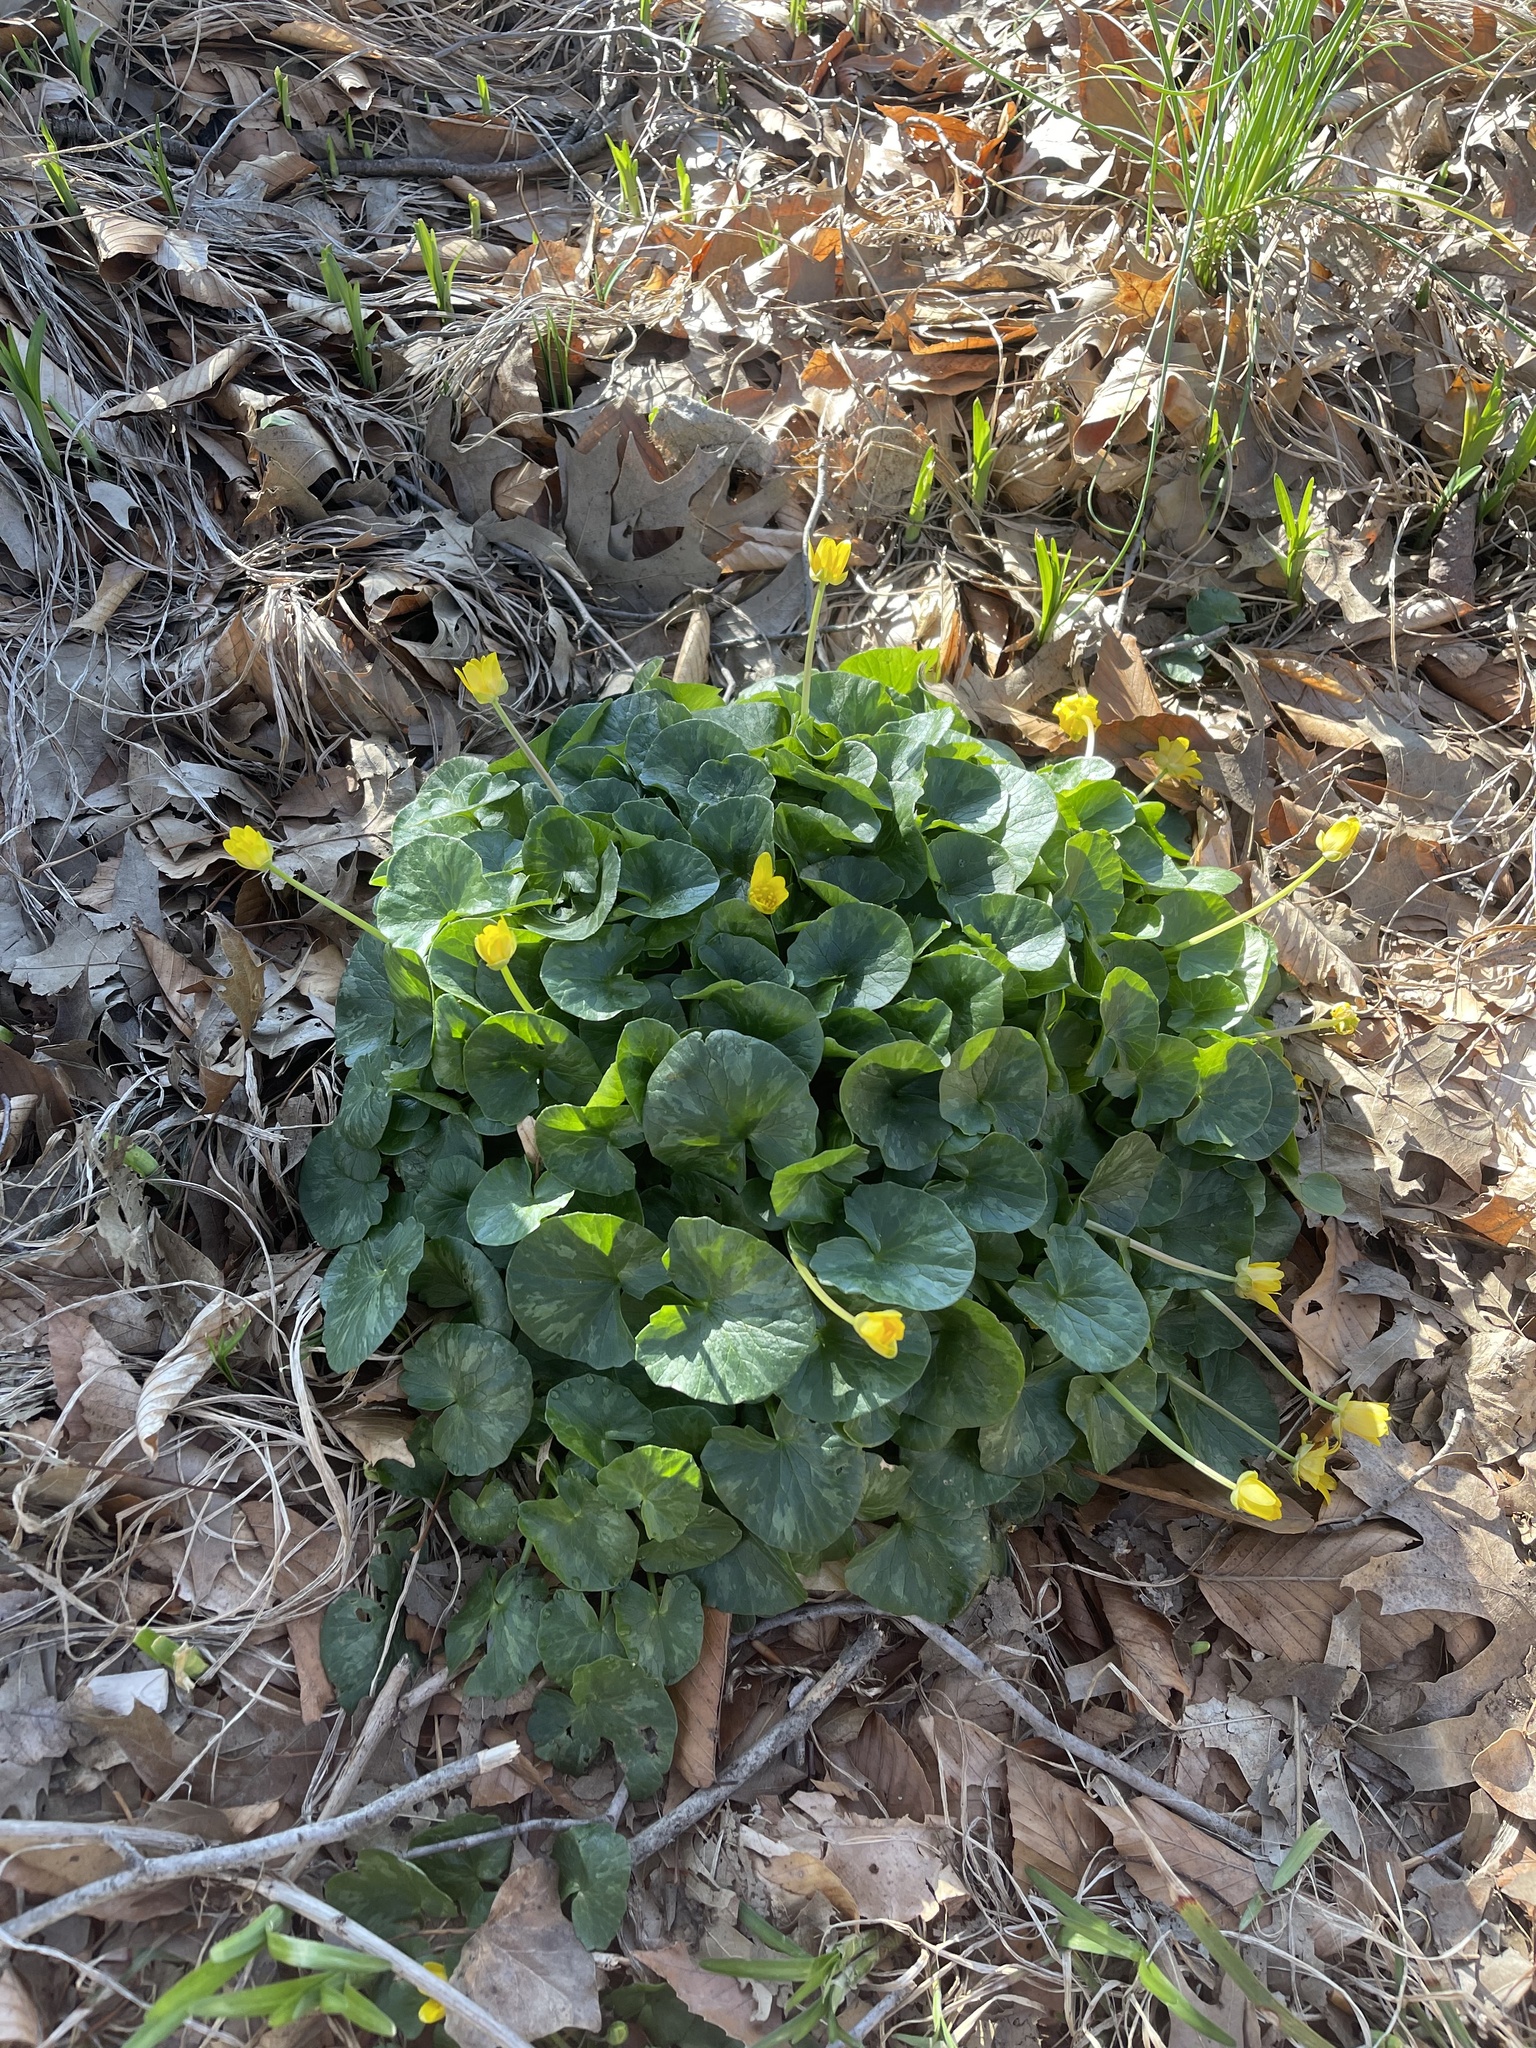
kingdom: Plantae
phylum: Tracheophyta
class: Magnoliopsida
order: Ranunculales
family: Ranunculaceae
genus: Ficaria
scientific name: Ficaria verna
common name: Lesser celandine
